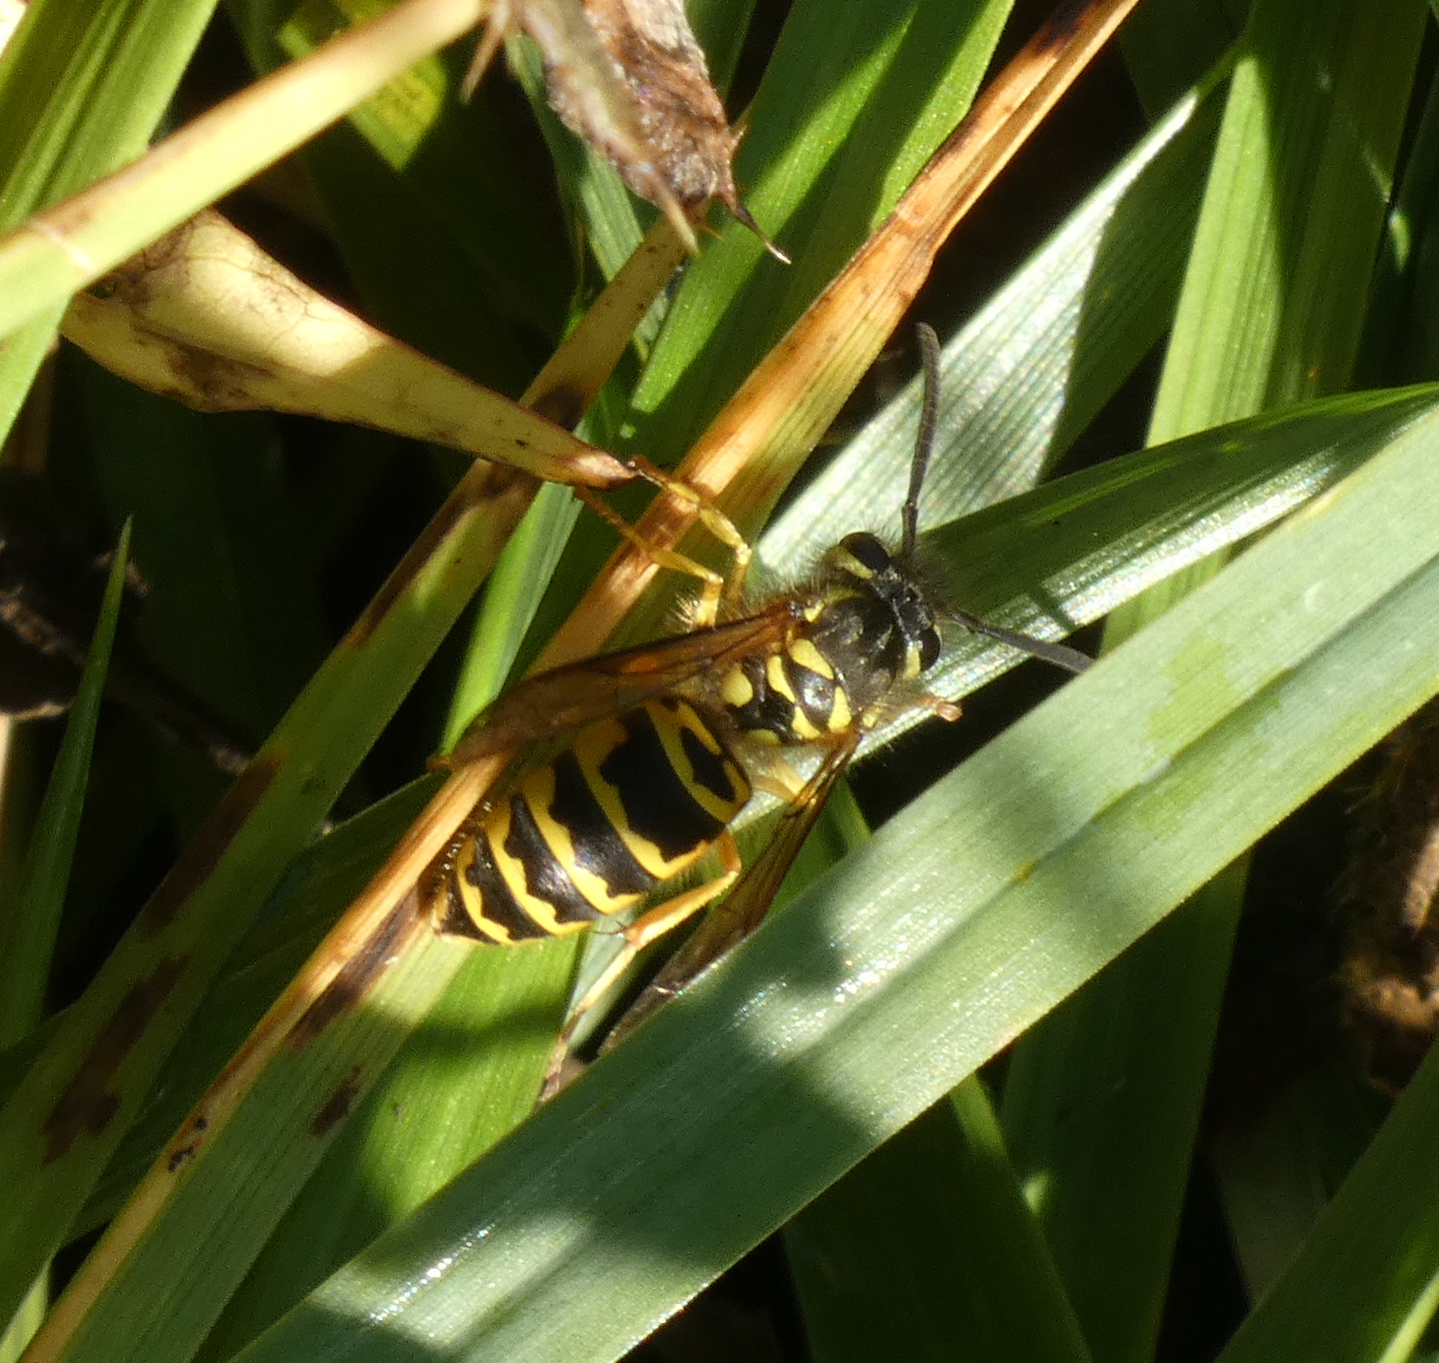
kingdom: Animalia
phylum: Arthropoda
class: Insecta
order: Hymenoptera
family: Vespidae
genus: Vespula
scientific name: Vespula maculifrons
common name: Eastern yellowjacket
